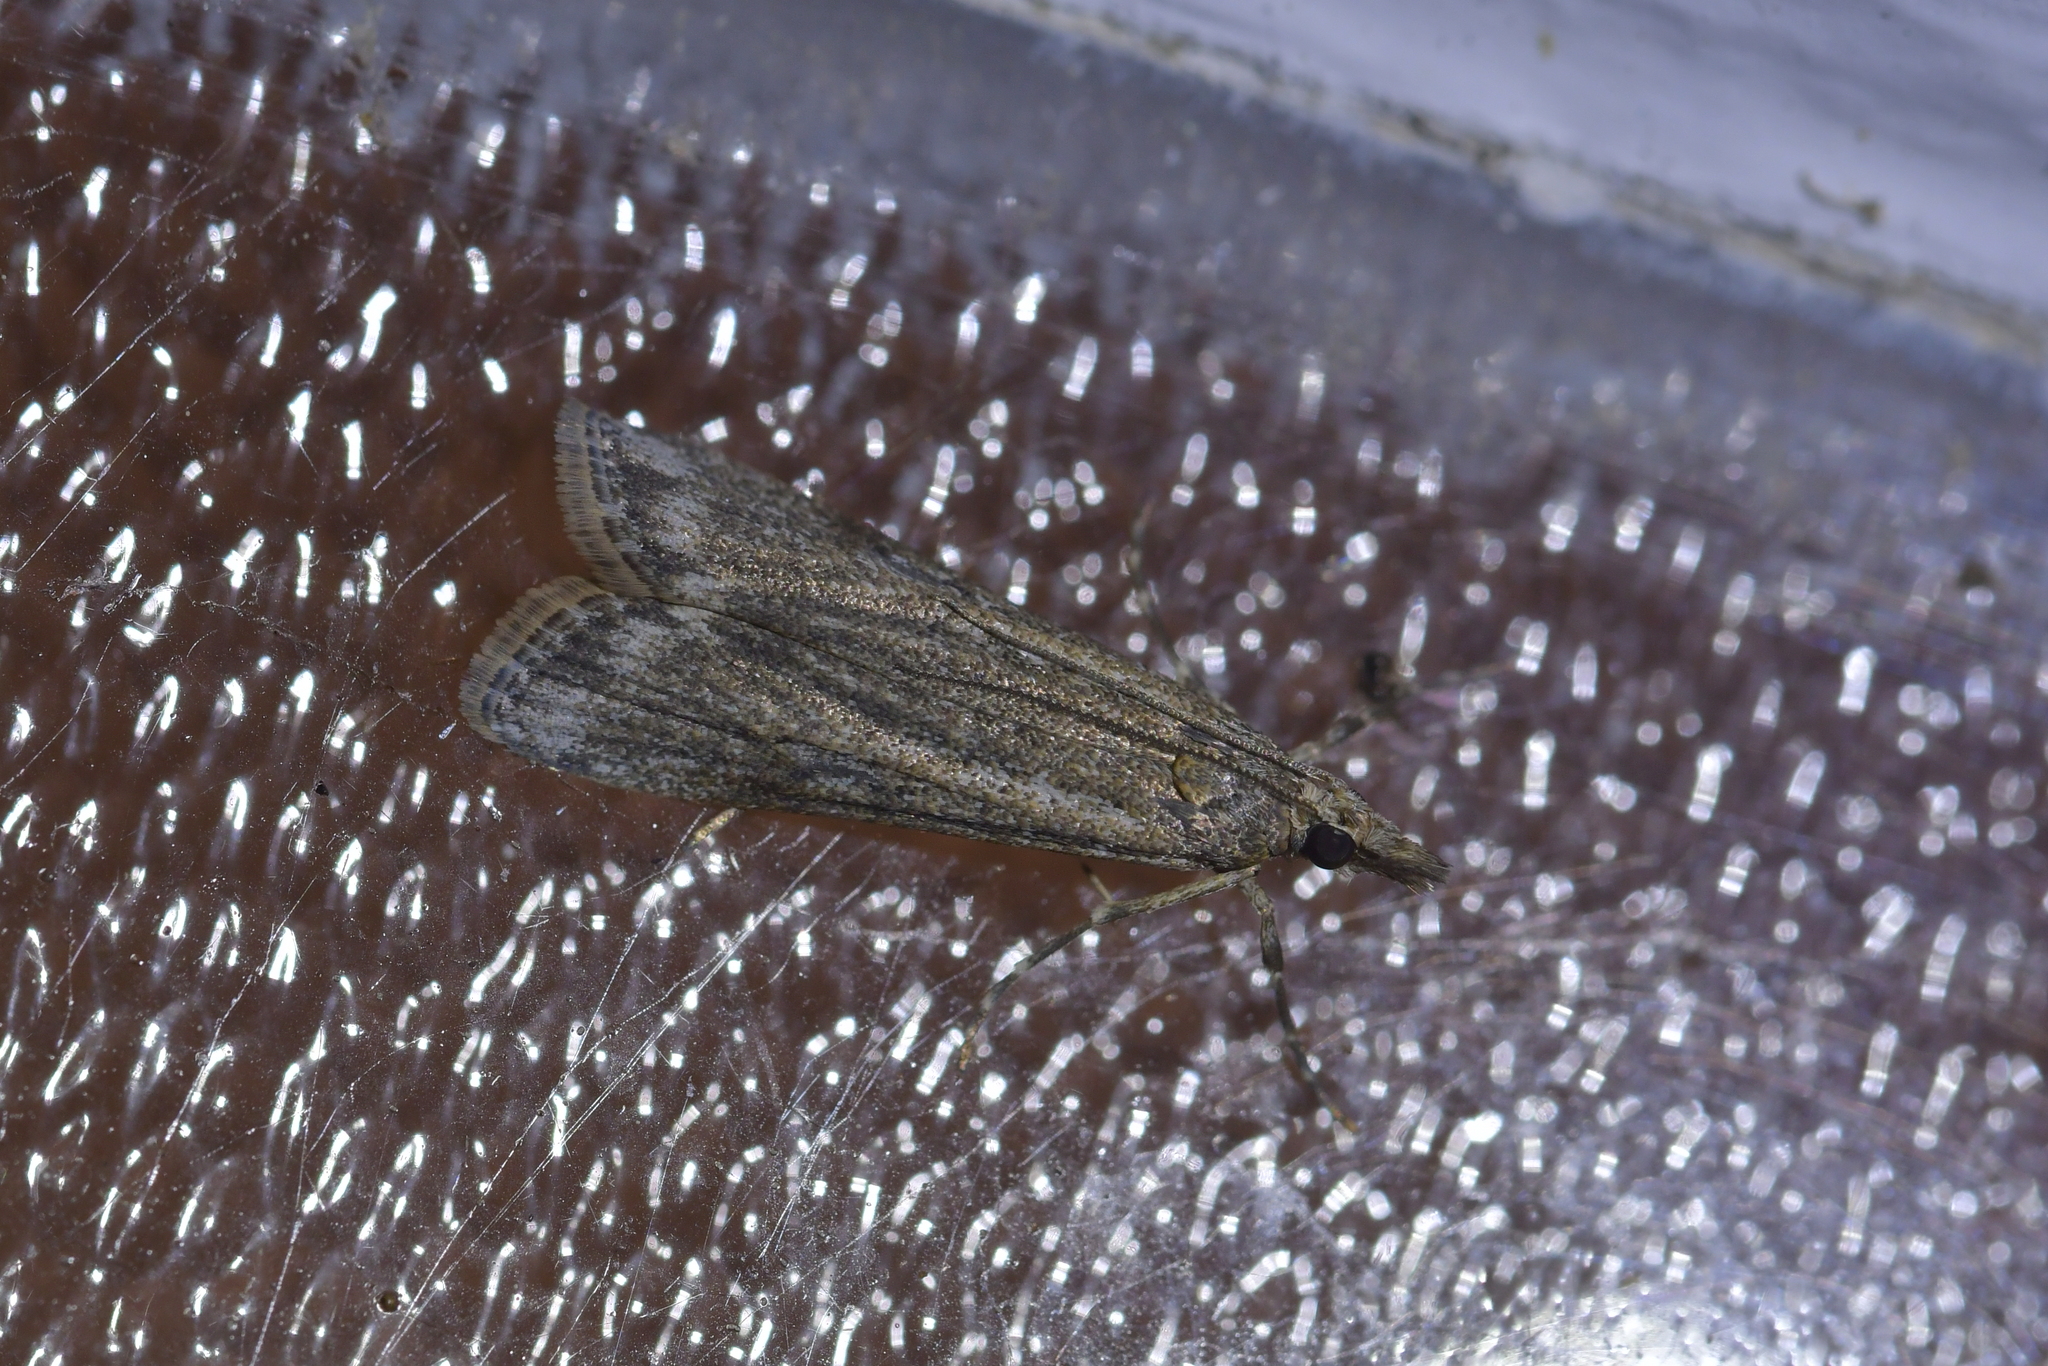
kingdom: Animalia
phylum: Arthropoda
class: Insecta
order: Lepidoptera
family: Crambidae
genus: Eudonia
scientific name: Eudonia leptalea
